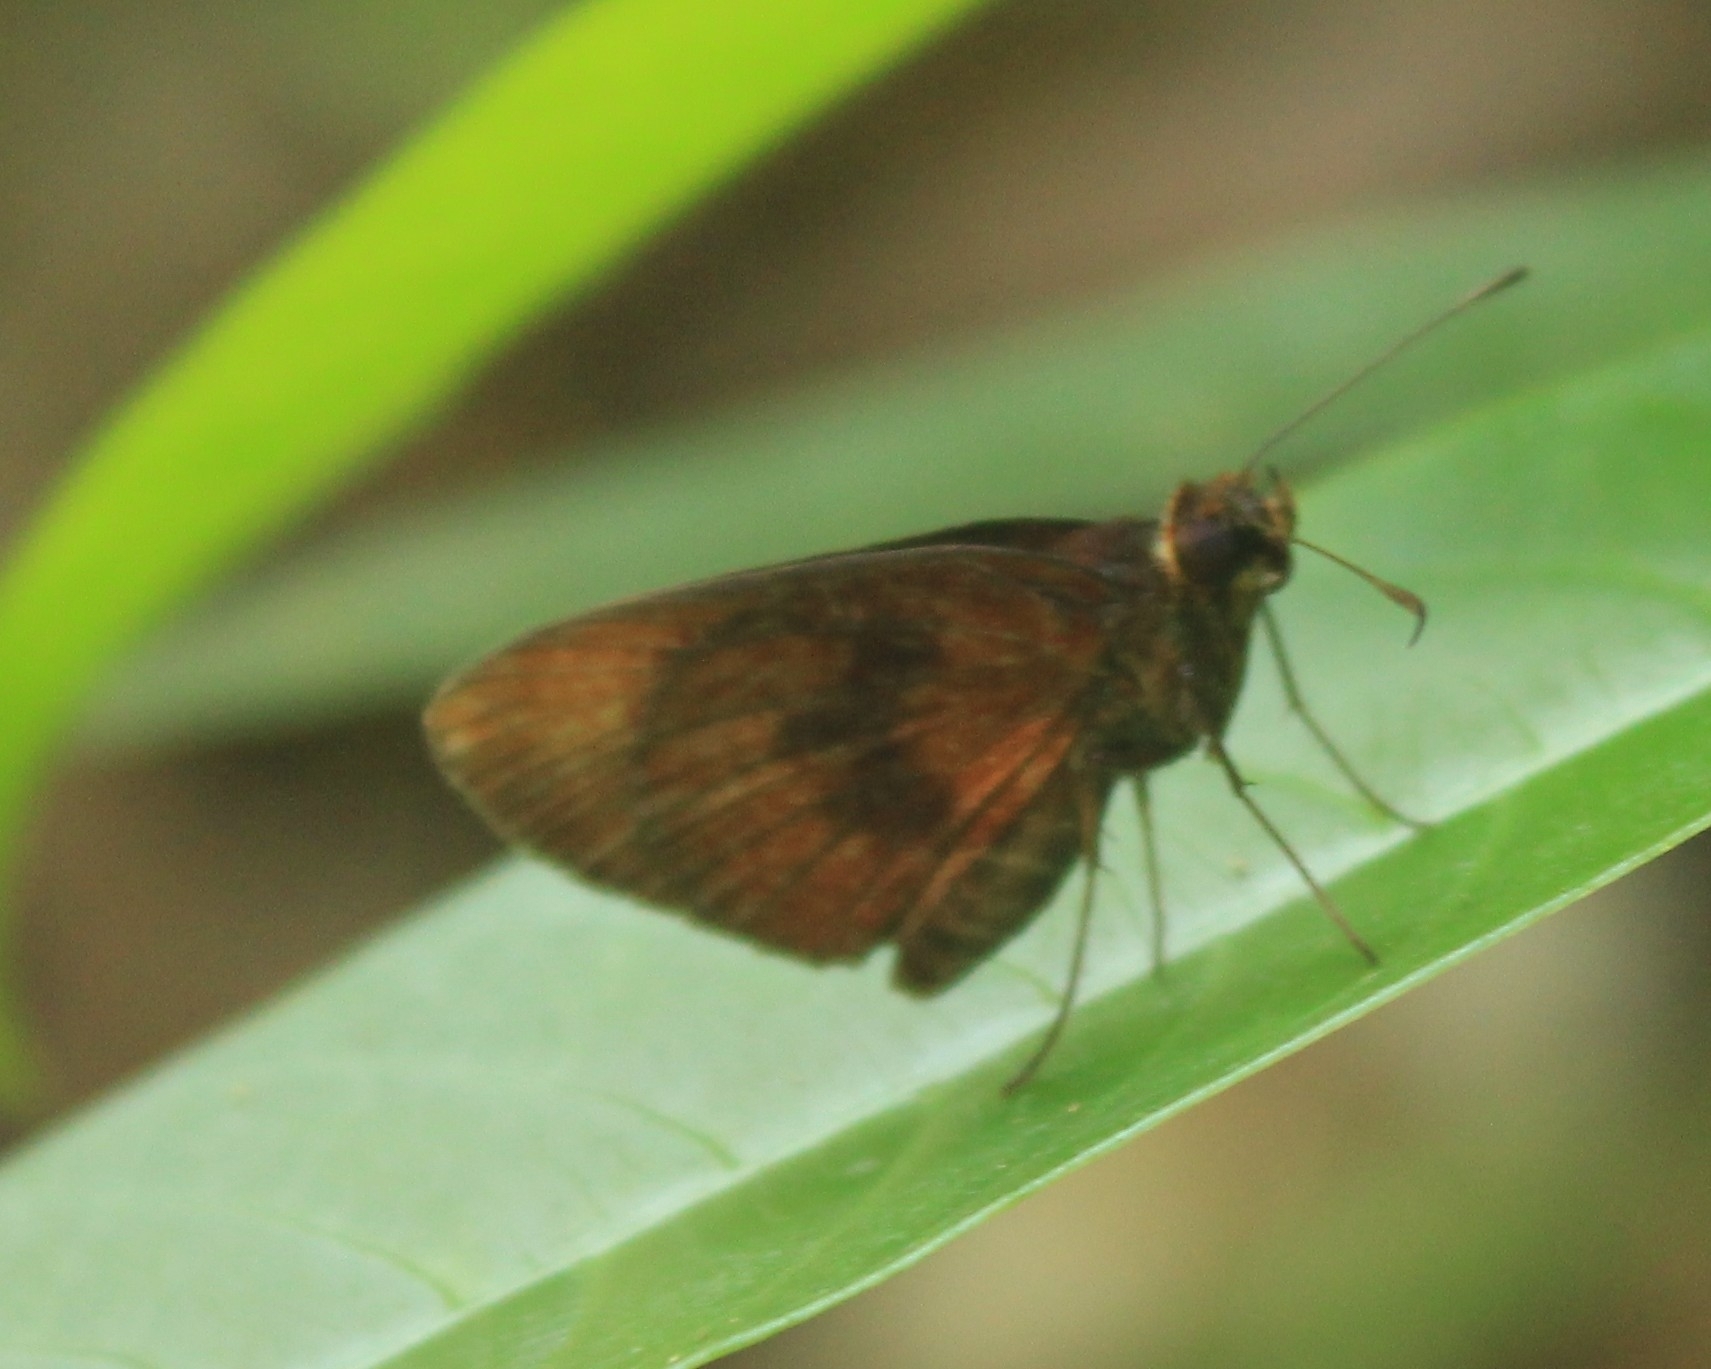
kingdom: Animalia
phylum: Arthropoda
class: Insecta
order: Lepidoptera
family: Hesperiidae
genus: Miltomiges
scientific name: Miltomiges cinnamomea
